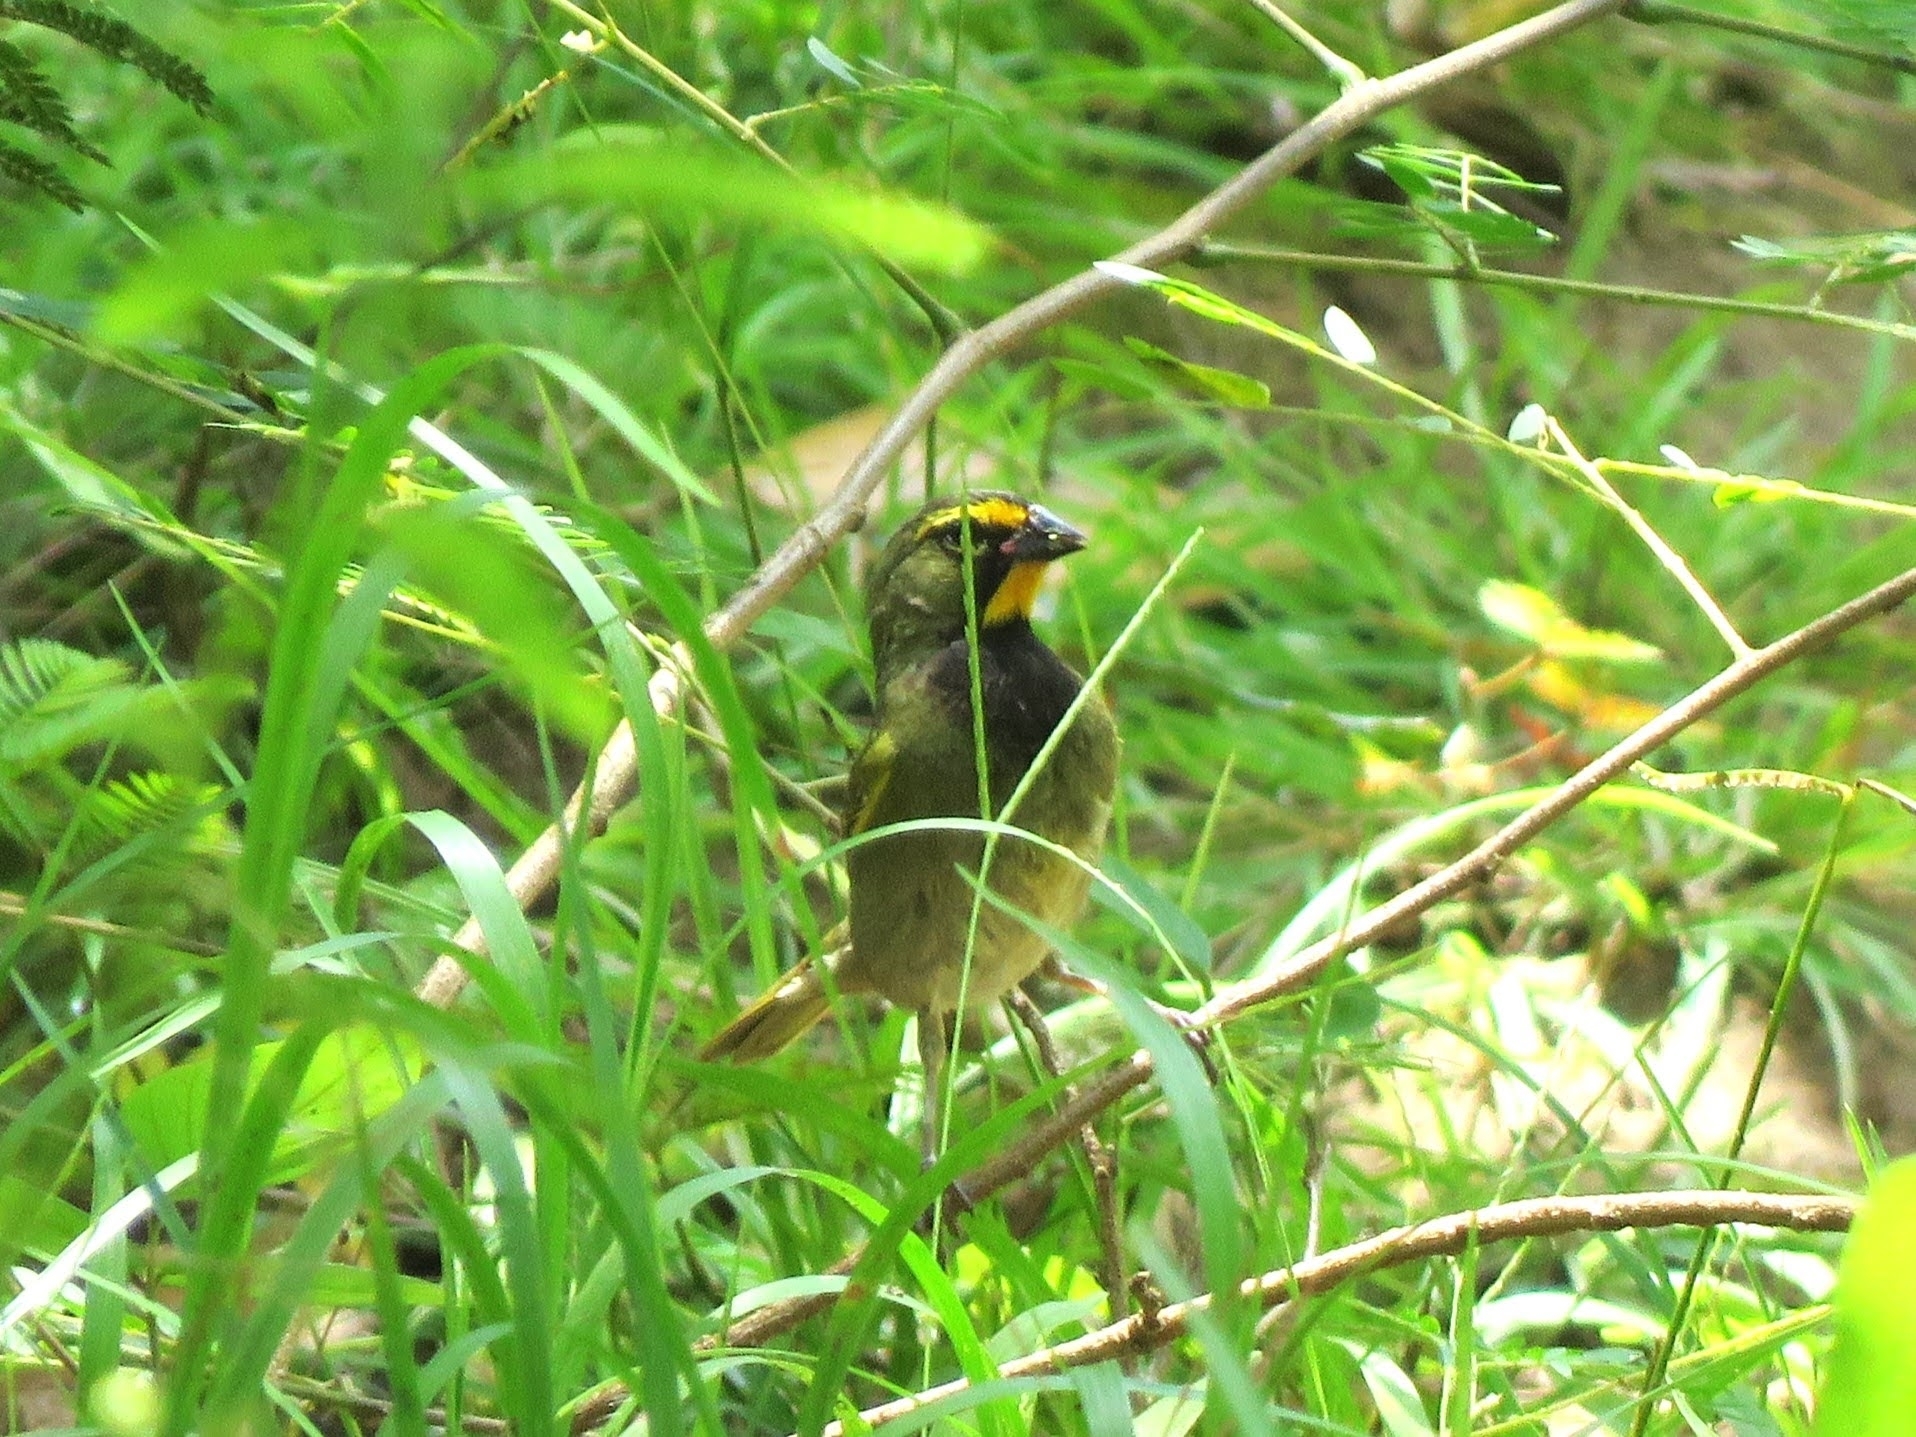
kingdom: Animalia
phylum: Chordata
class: Aves
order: Passeriformes
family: Thraupidae
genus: Tiaris
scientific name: Tiaris olivaceus
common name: Yellow-faced grassquit
